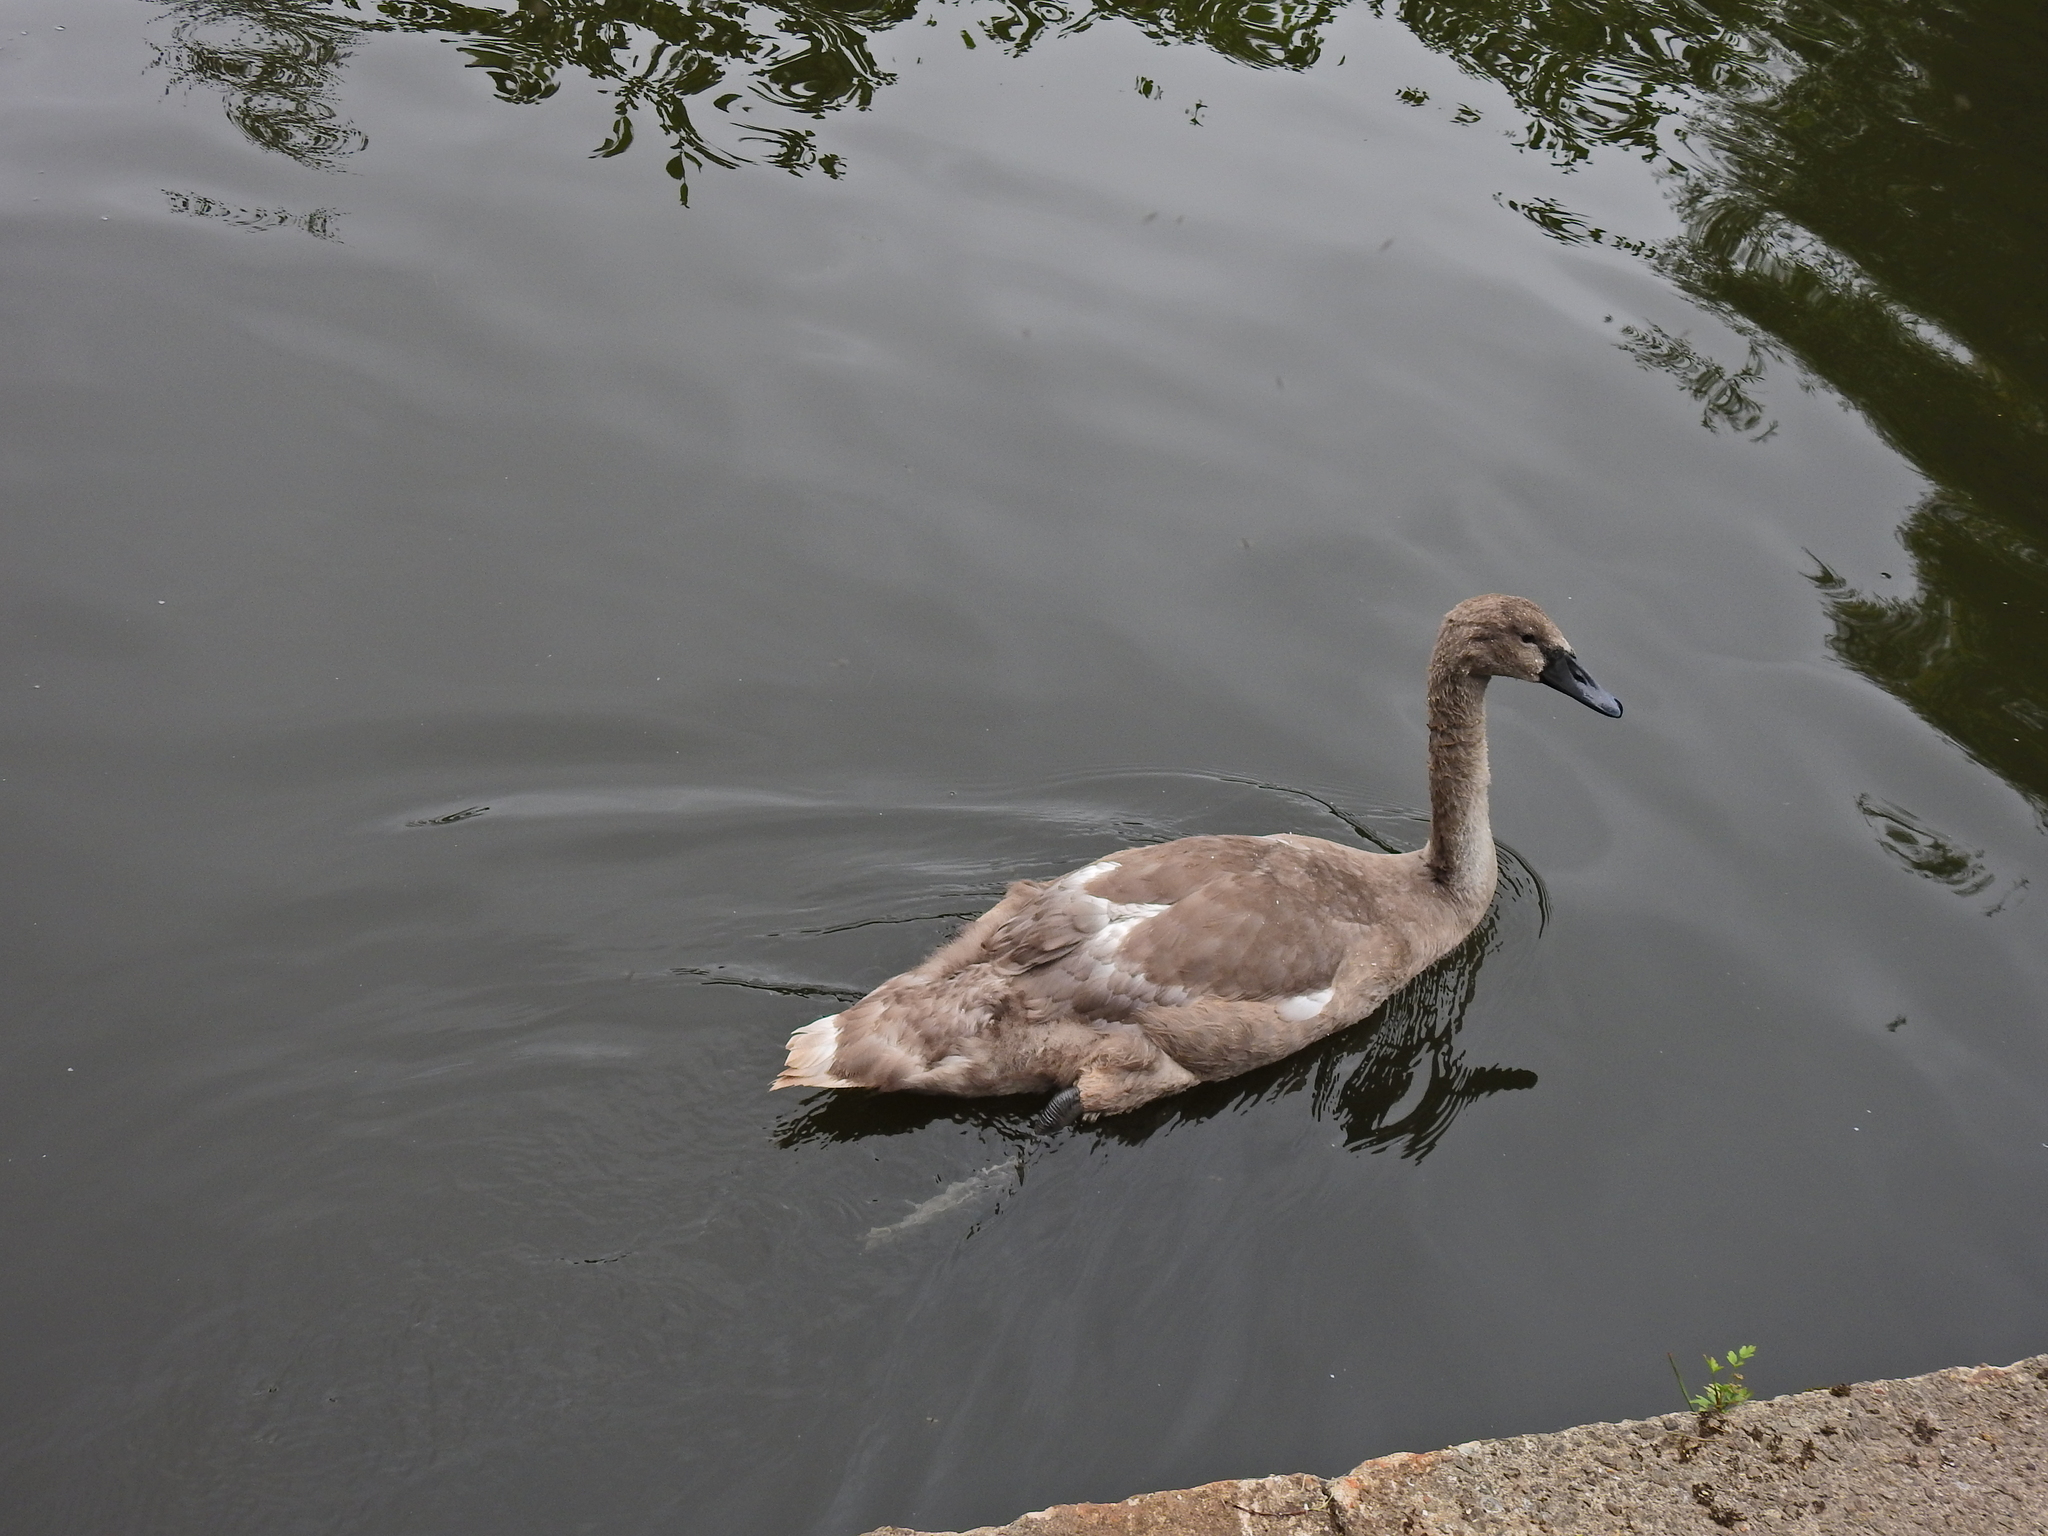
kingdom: Animalia
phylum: Chordata
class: Aves
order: Anseriformes
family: Anatidae
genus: Cygnus
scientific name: Cygnus olor
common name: Mute swan
